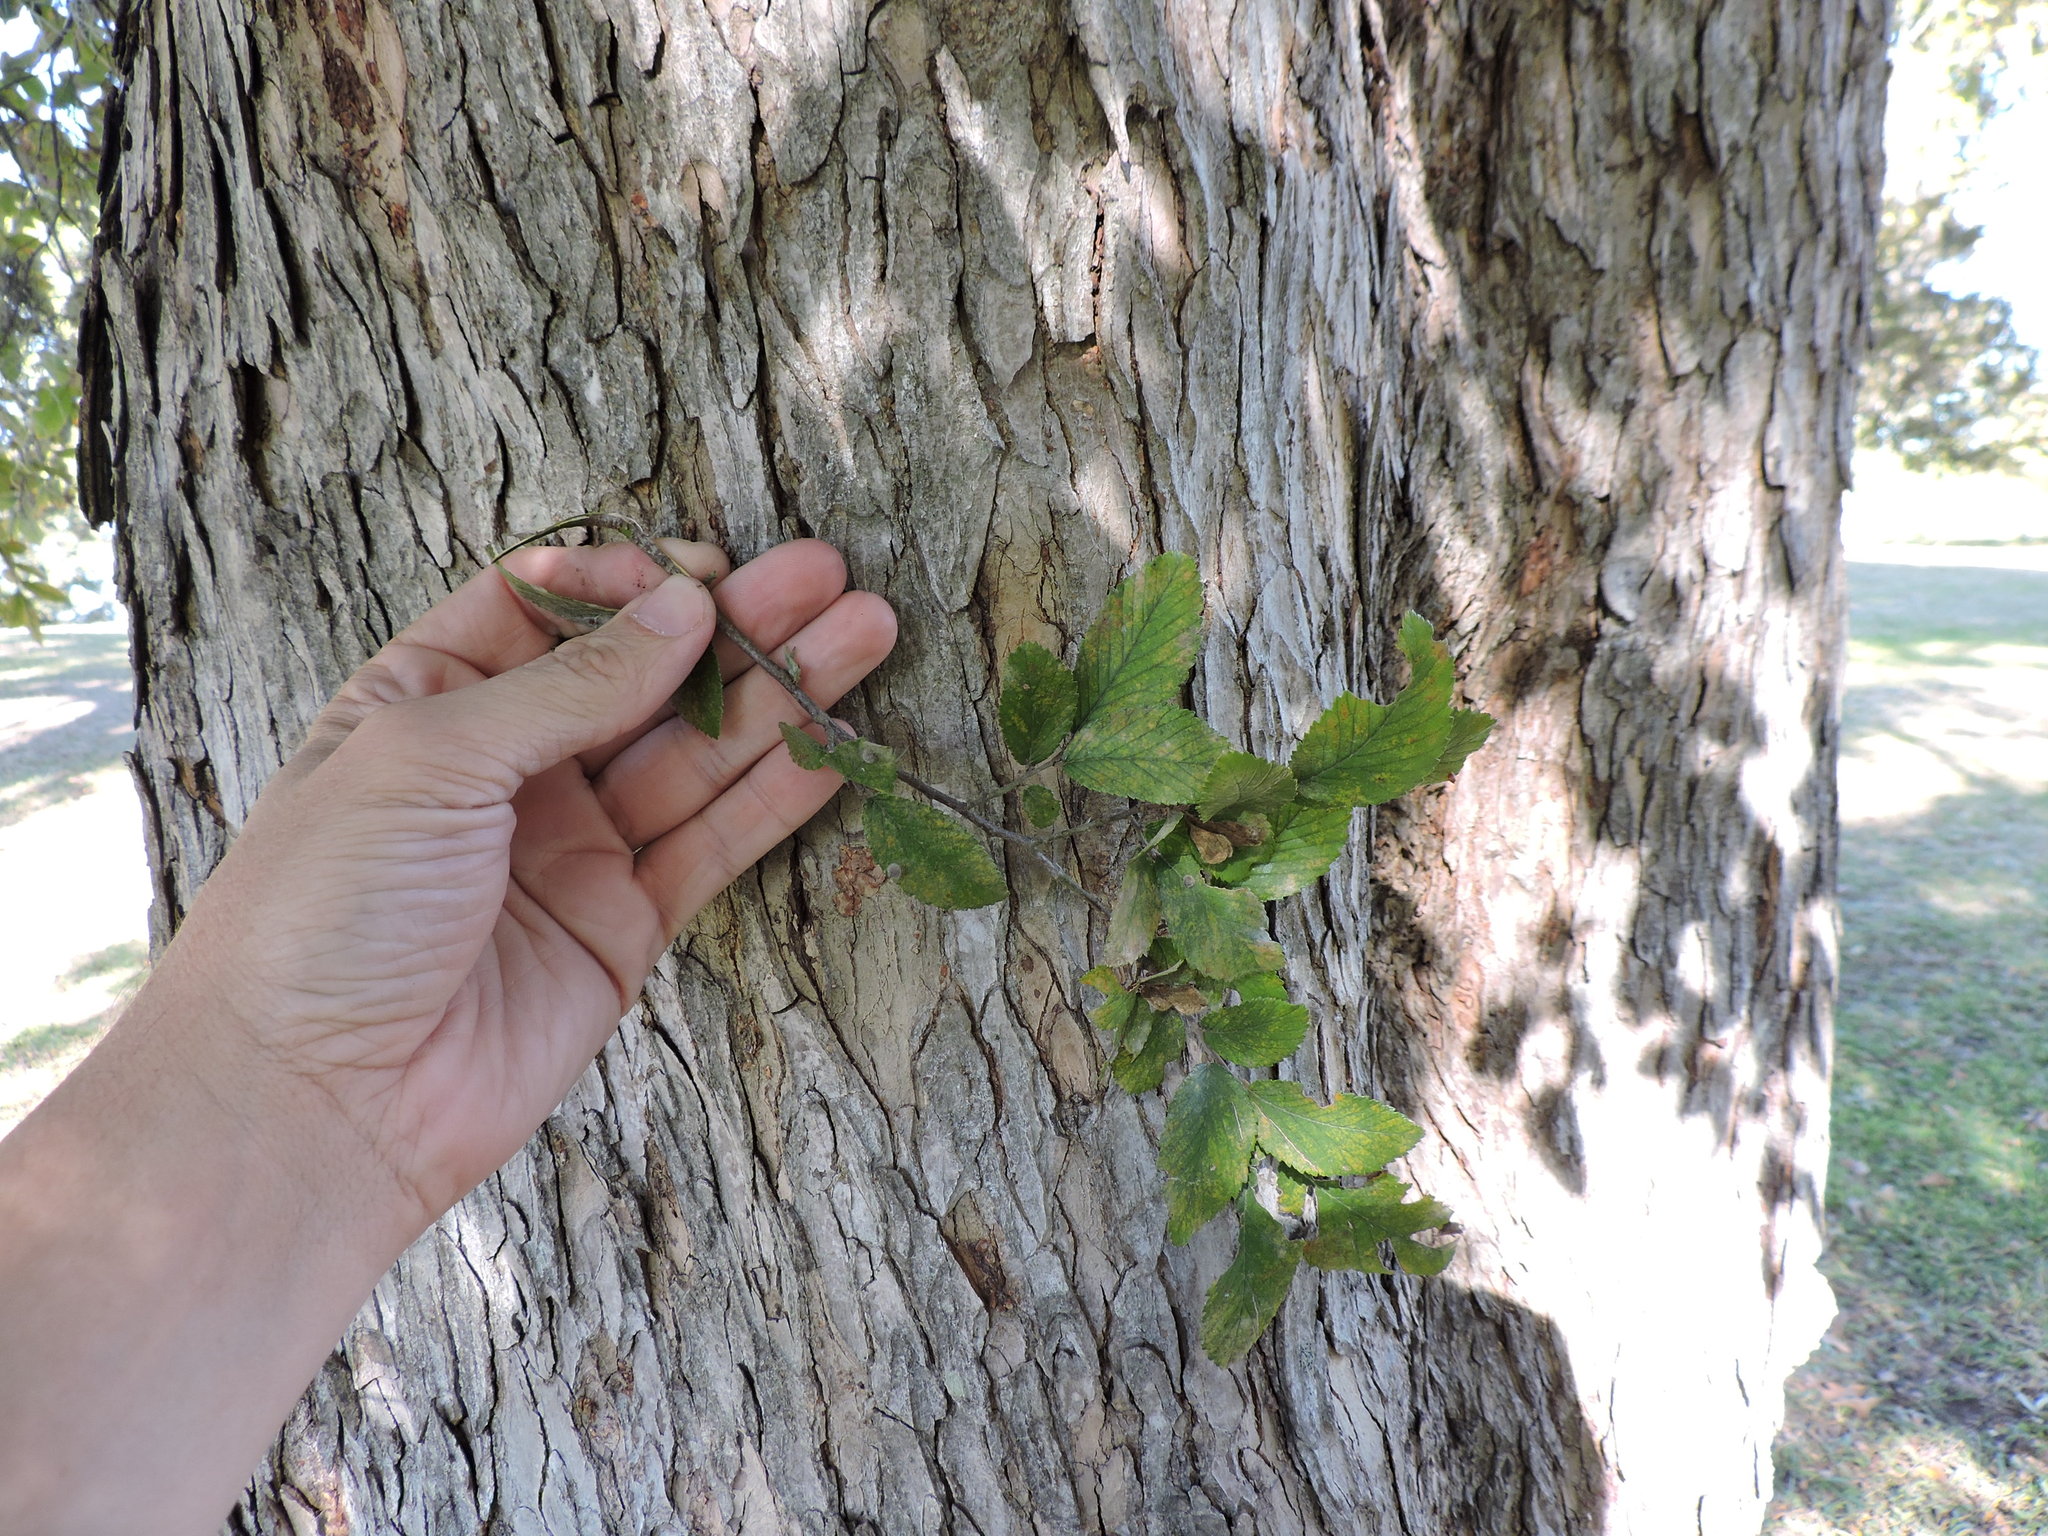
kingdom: Plantae
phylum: Tracheophyta
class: Magnoliopsida
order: Rosales
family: Ulmaceae
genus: Ulmus
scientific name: Ulmus crassifolia
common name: Basket elm
